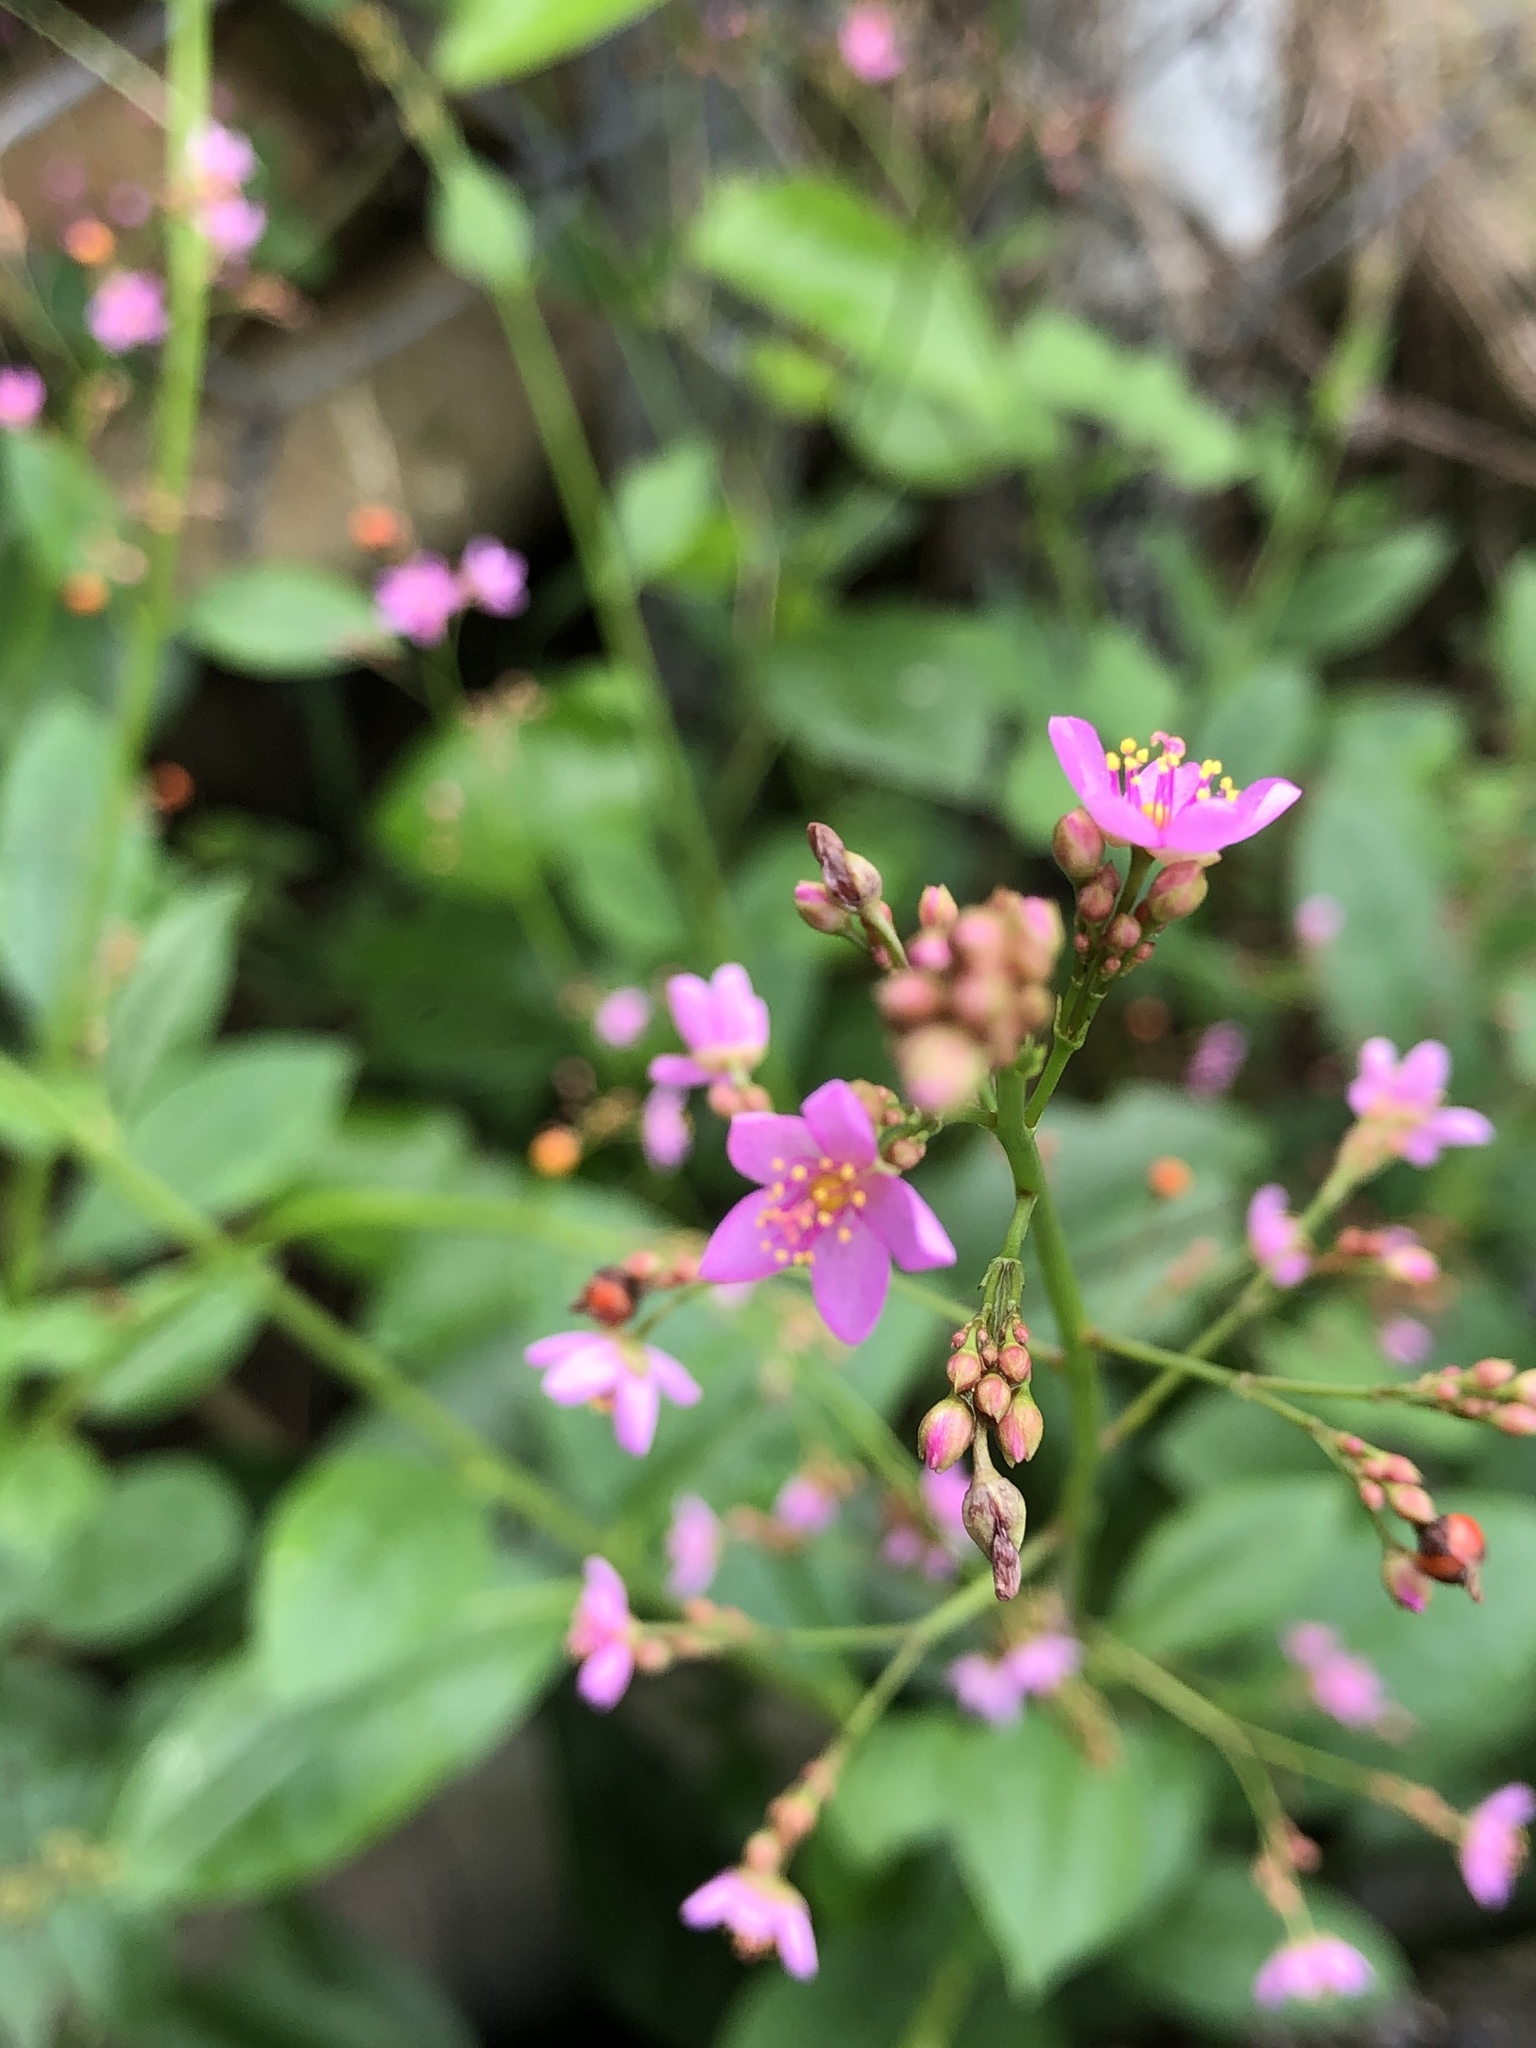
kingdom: Plantae
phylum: Tracheophyta
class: Magnoliopsida
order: Caryophyllales
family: Talinaceae
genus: Talinum
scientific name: Talinum paniculatum
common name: Jewels of opar
